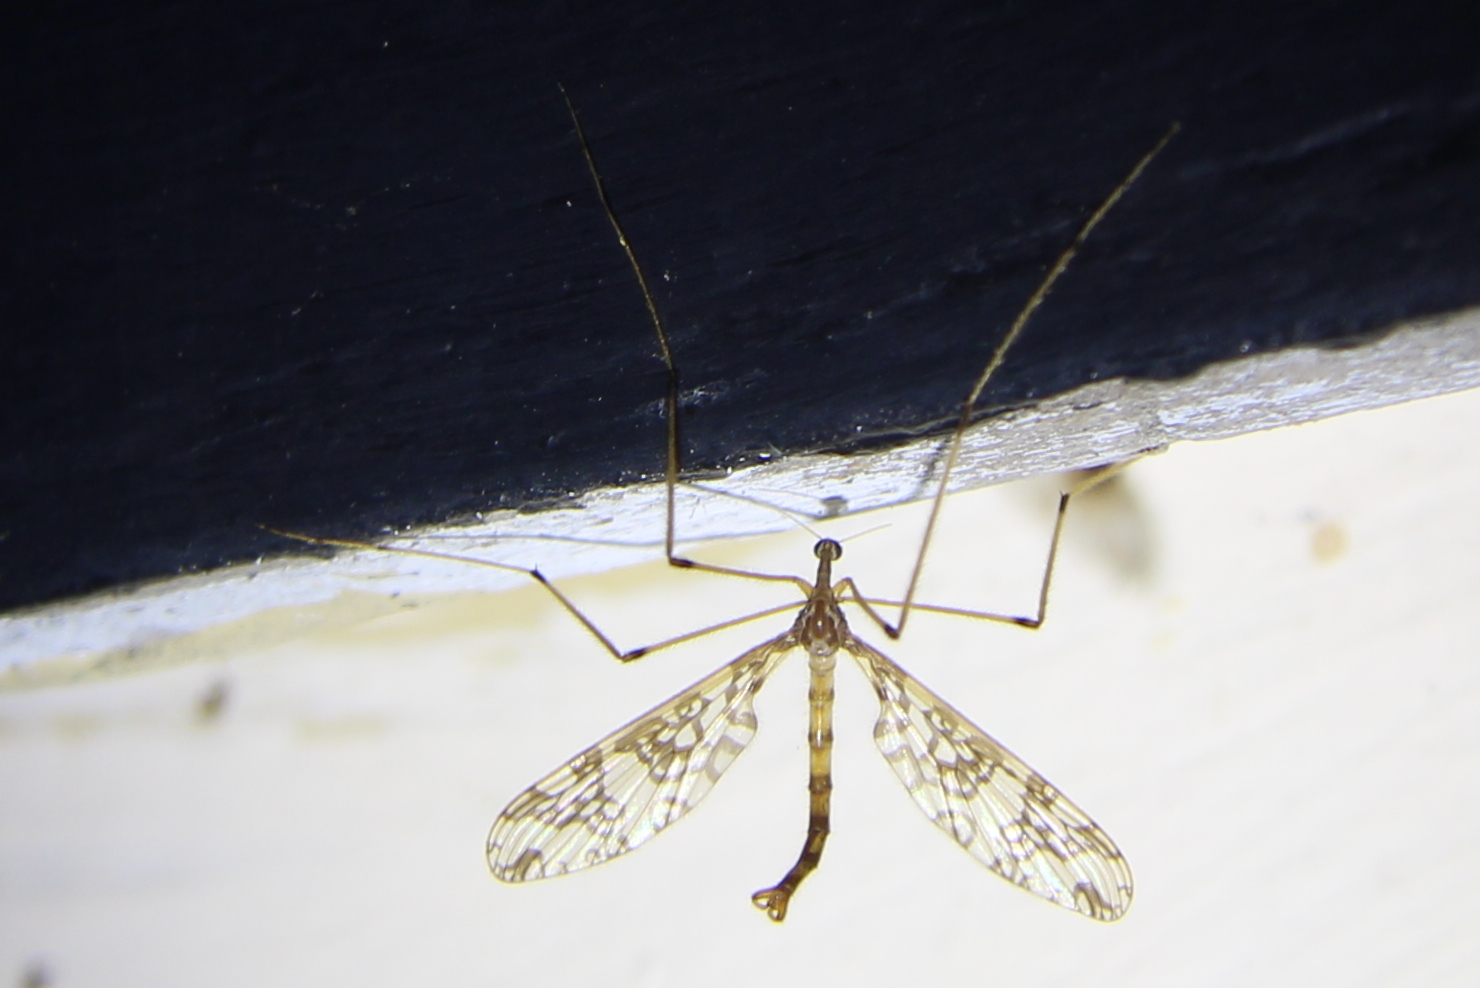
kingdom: Animalia
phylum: Arthropoda
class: Insecta
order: Diptera
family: Tanyderidae
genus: Tanyderus
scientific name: Tanyderus annuliferus
